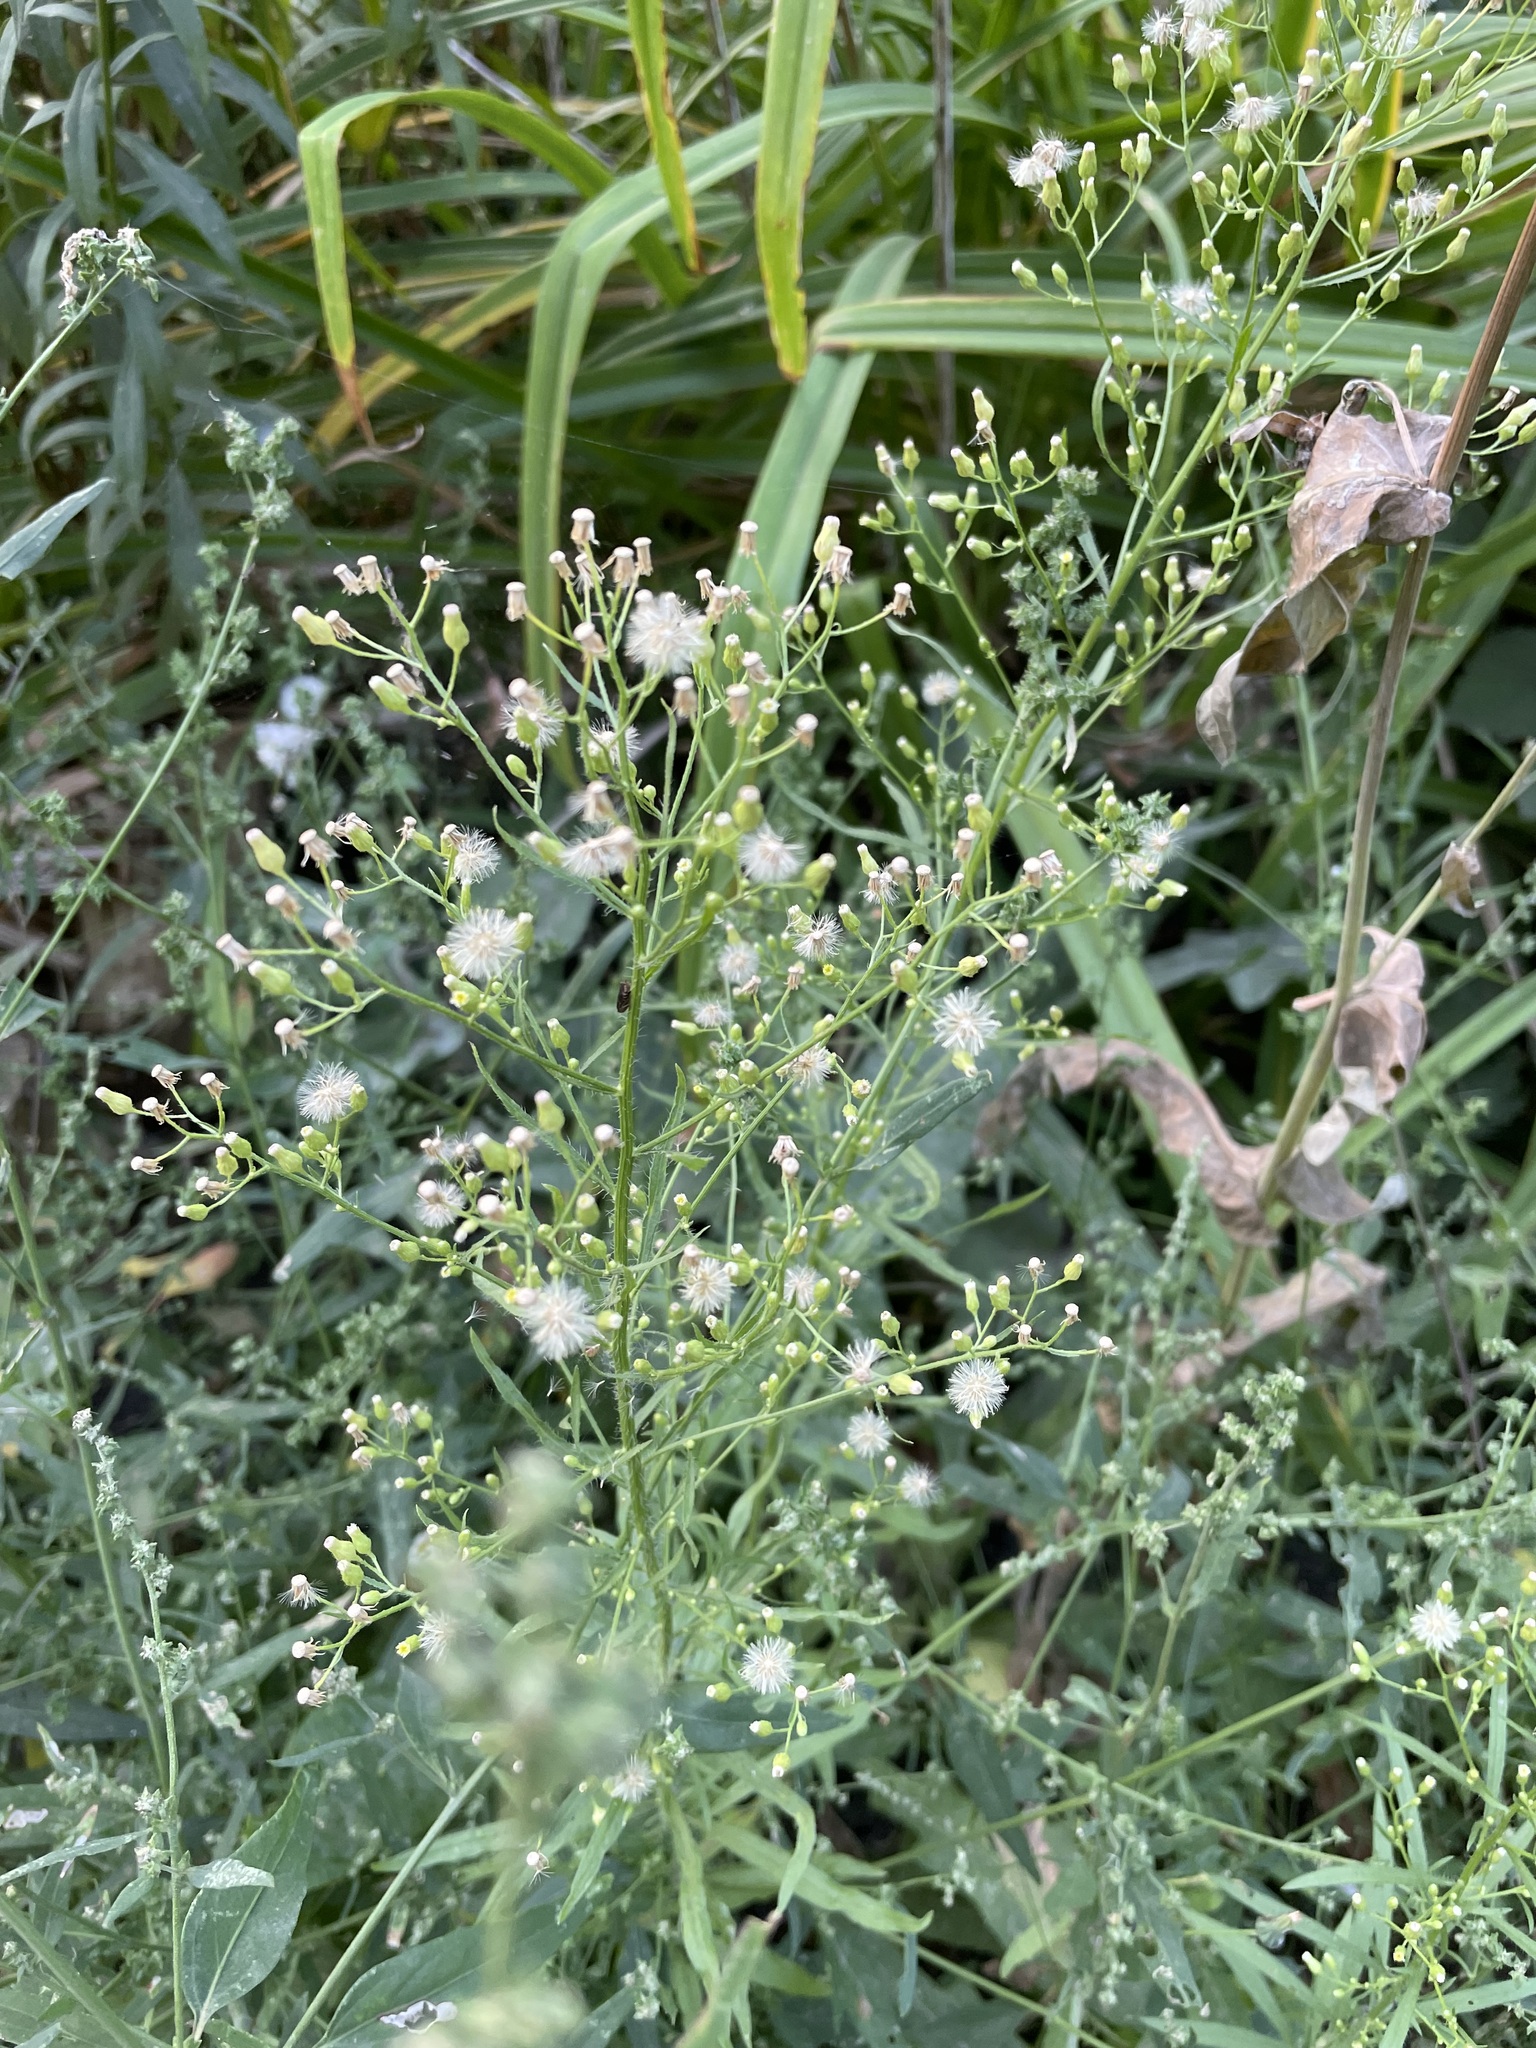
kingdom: Plantae
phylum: Tracheophyta
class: Magnoliopsida
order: Asterales
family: Asteraceae
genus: Erigeron
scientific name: Erigeron canadensis
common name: Canadian fleabane
